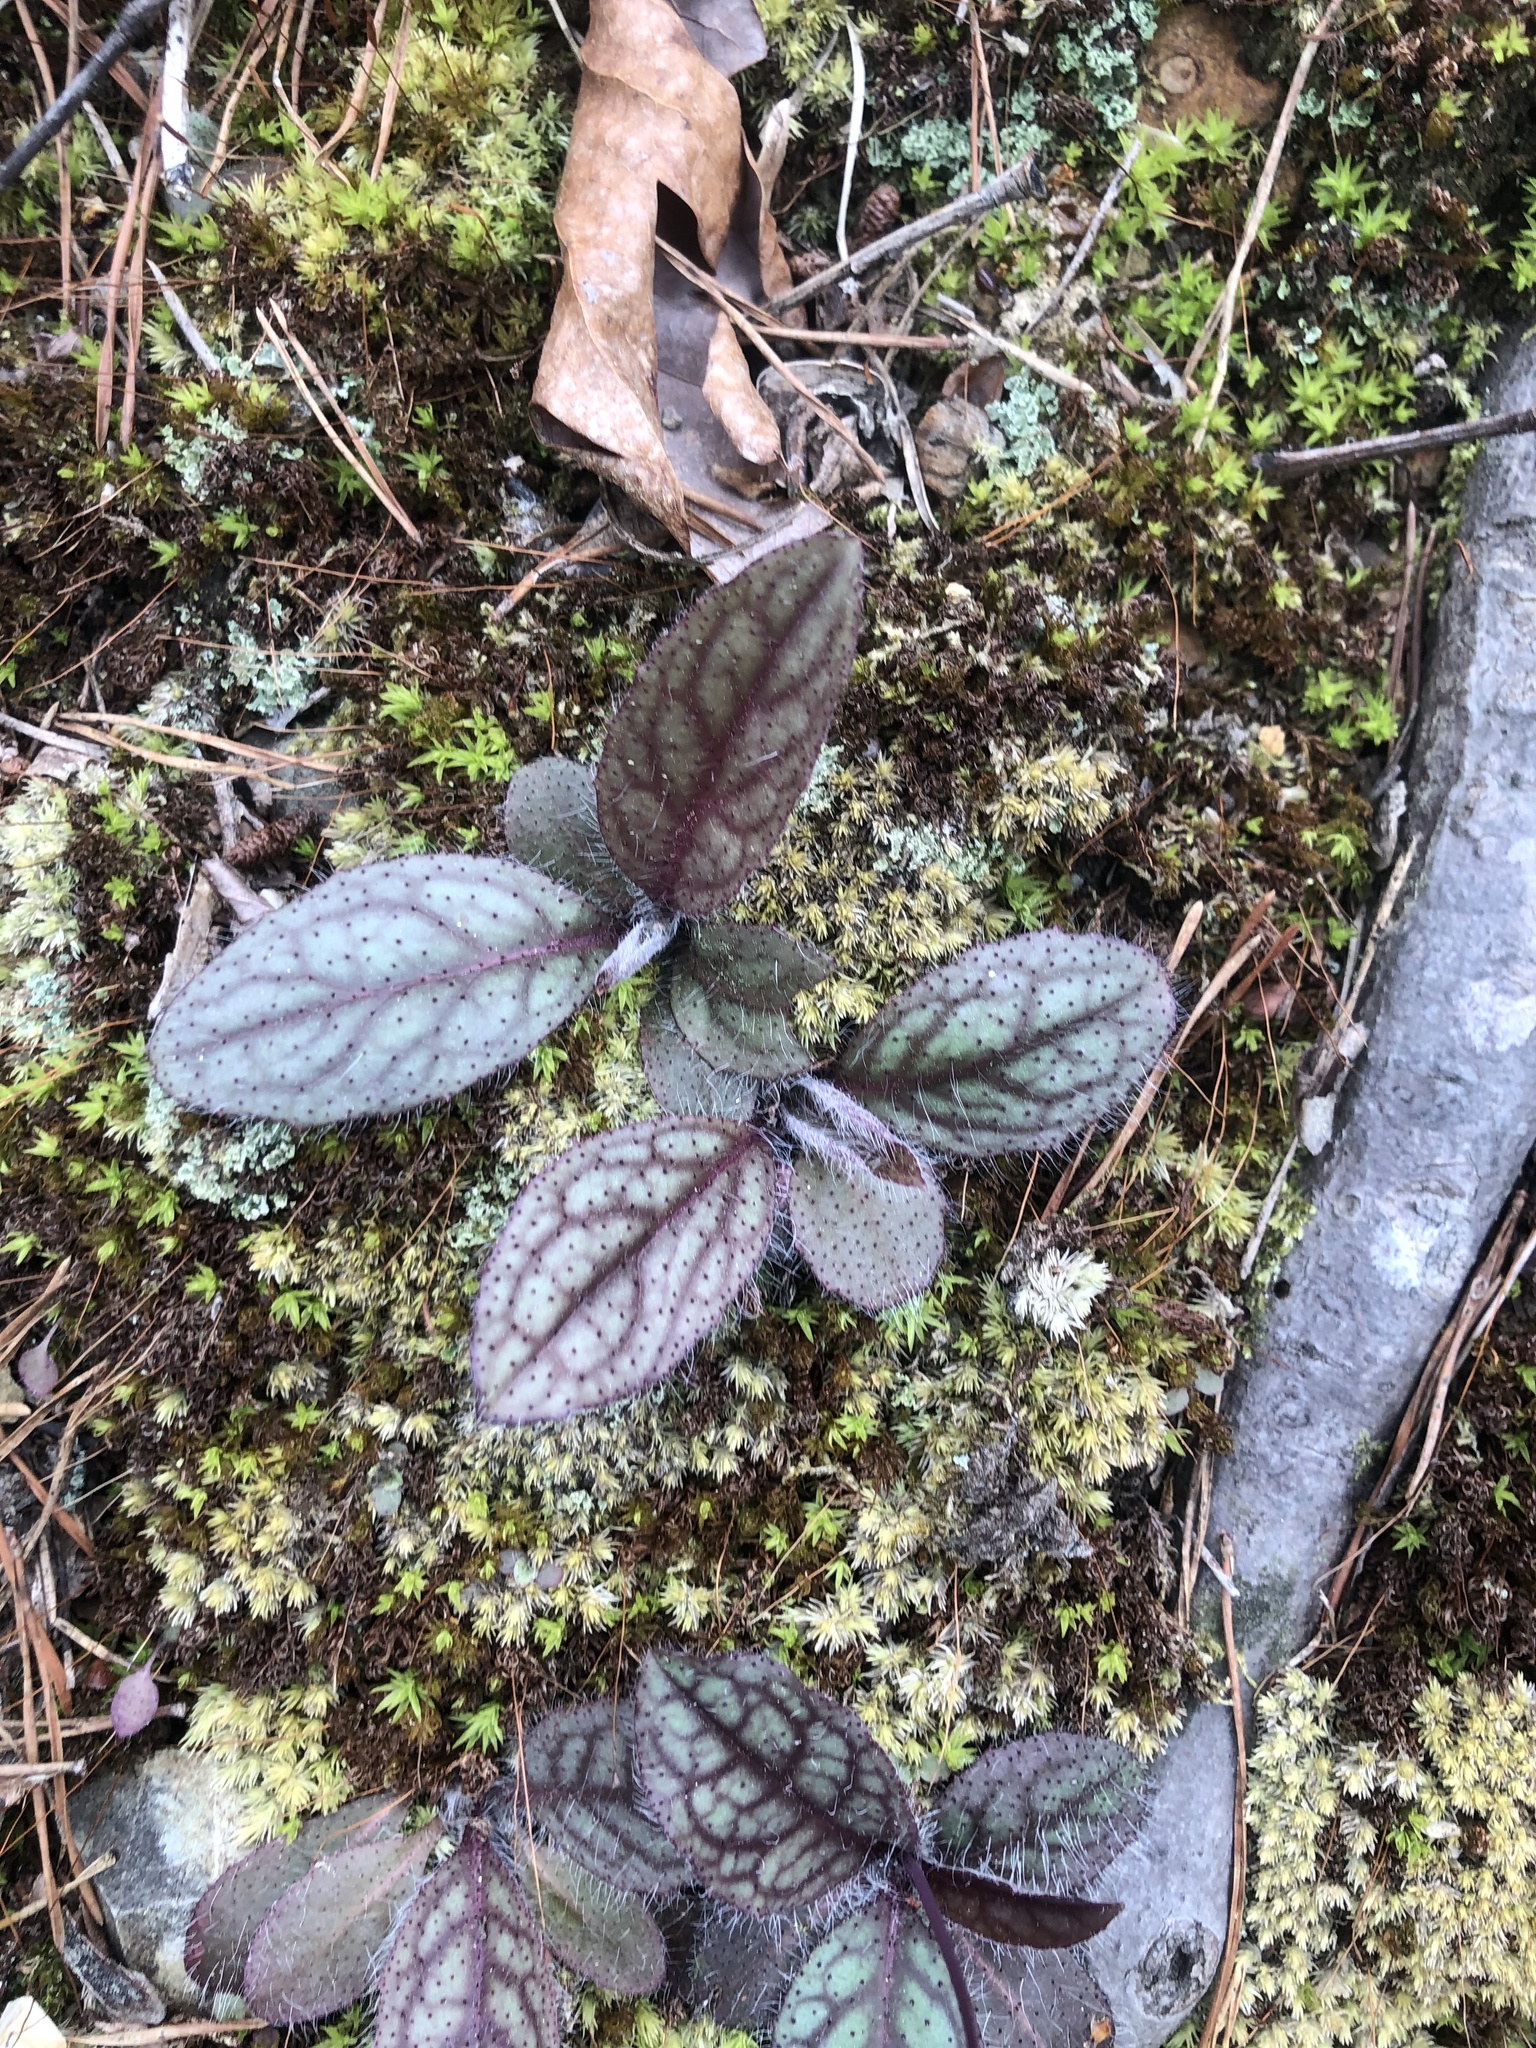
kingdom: Plantae
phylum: Tracheophyta
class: Magnoliopsida
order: Asterales
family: Asteraceae
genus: Hieracium
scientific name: Hieracium venosum
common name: Rattlesnake hawkweed
